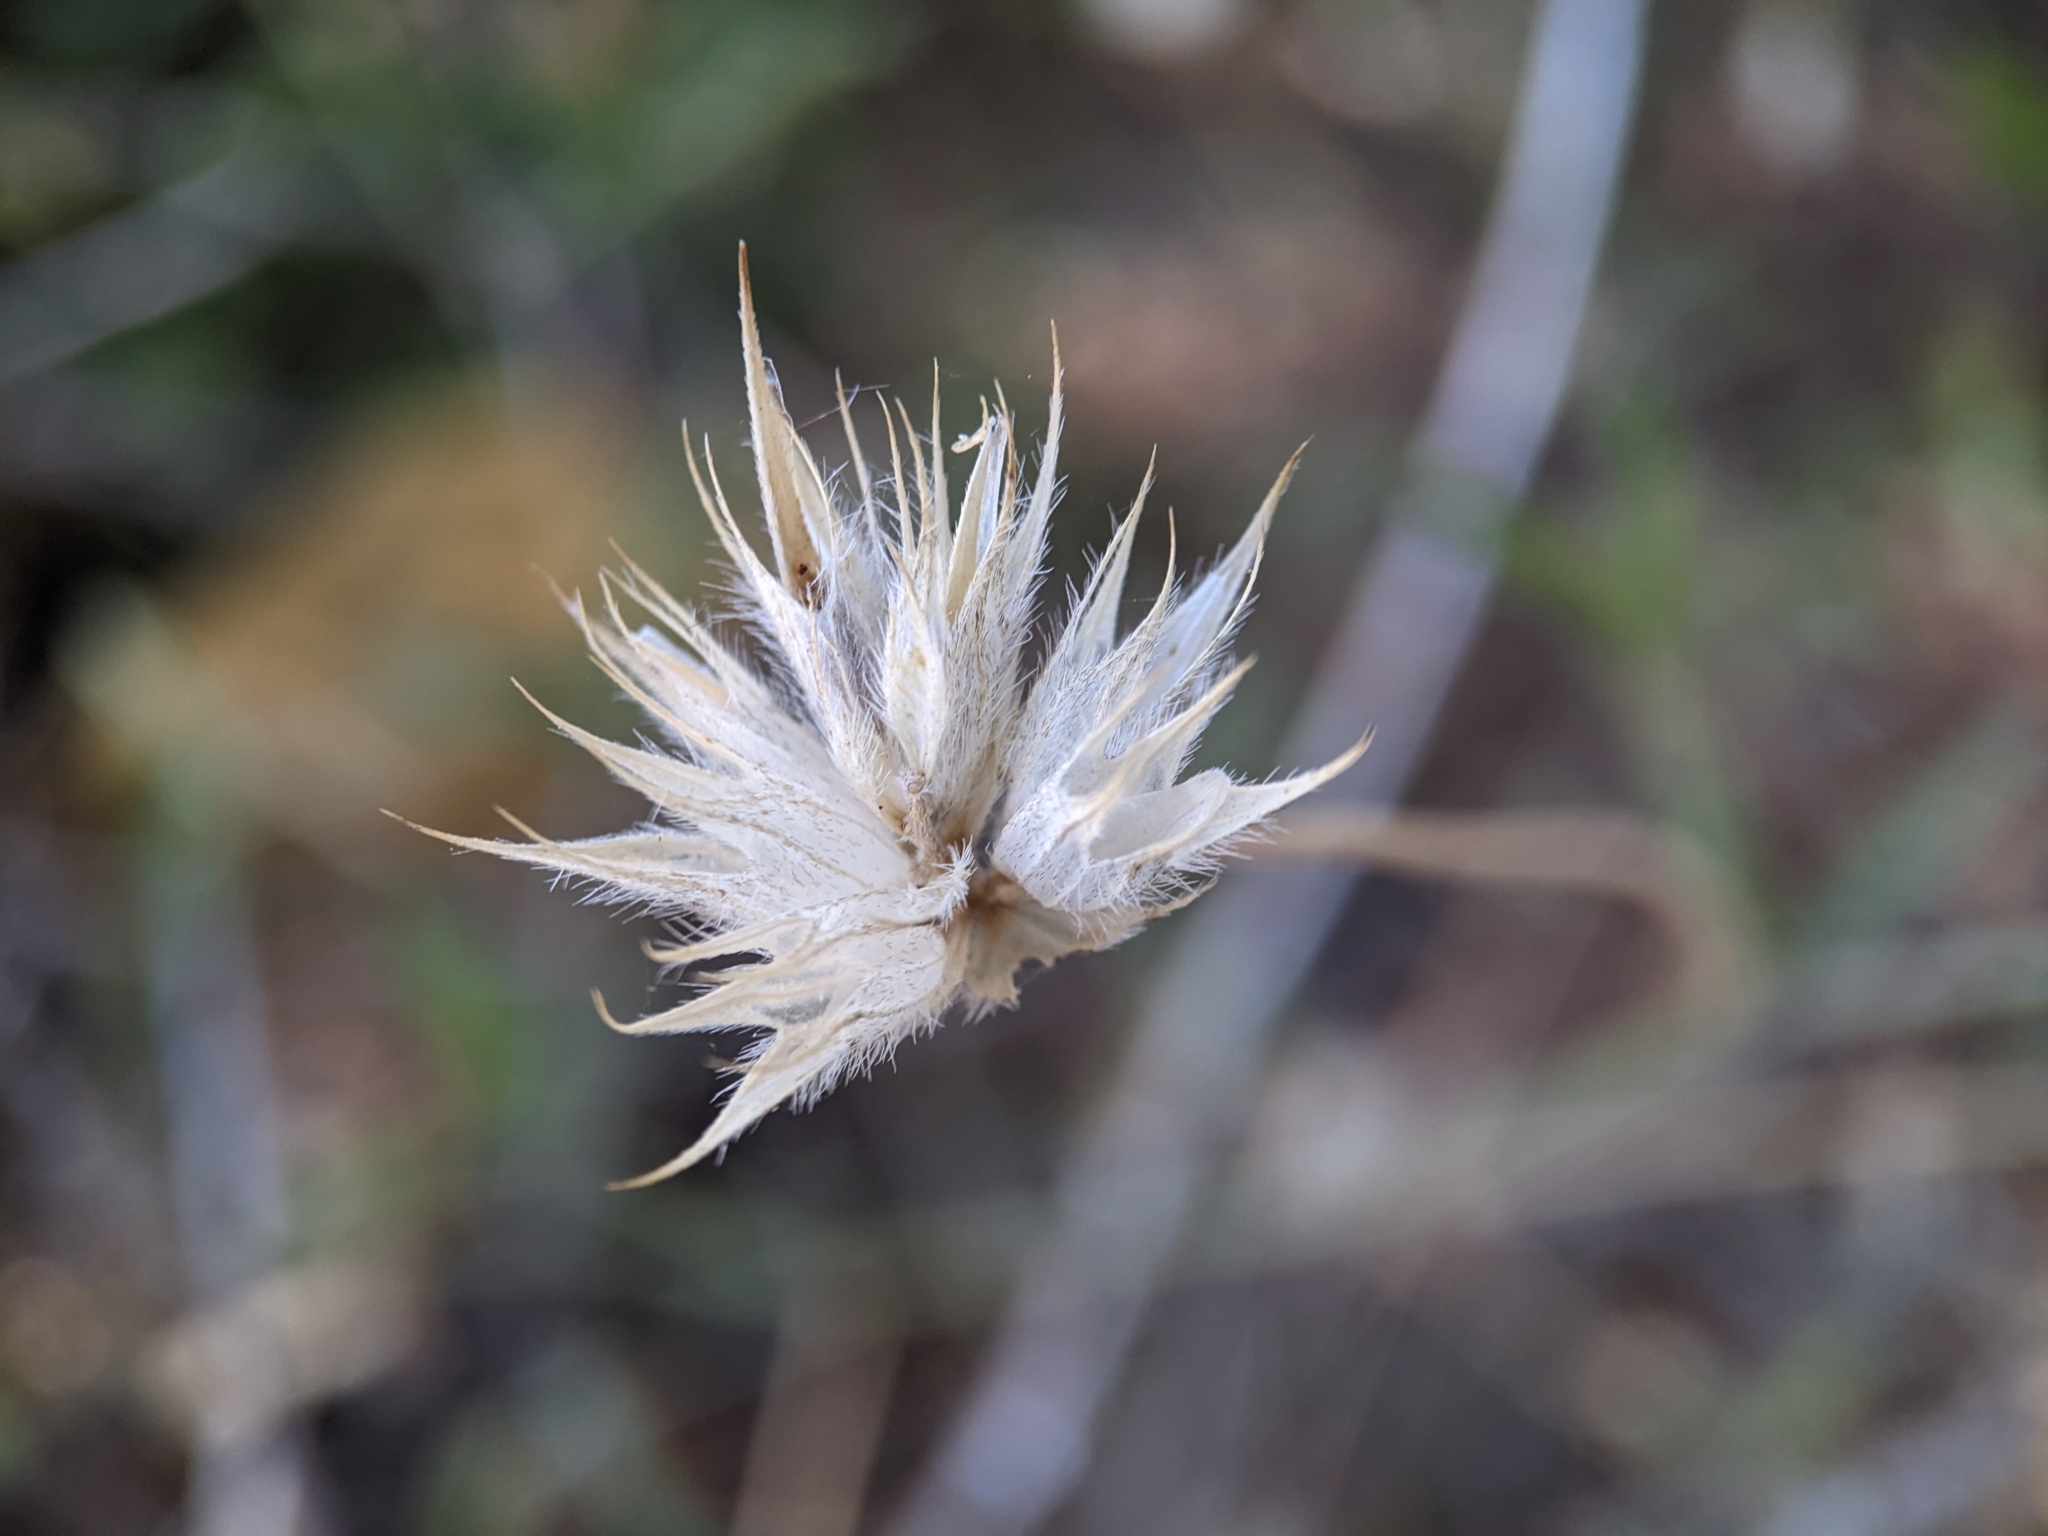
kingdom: Plantae
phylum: Tracheophyta
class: Magnoliopsida
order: Fabales
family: Fabaceae
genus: Bituminaria
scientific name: Bituminaria bituminosa
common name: Arabian pea
